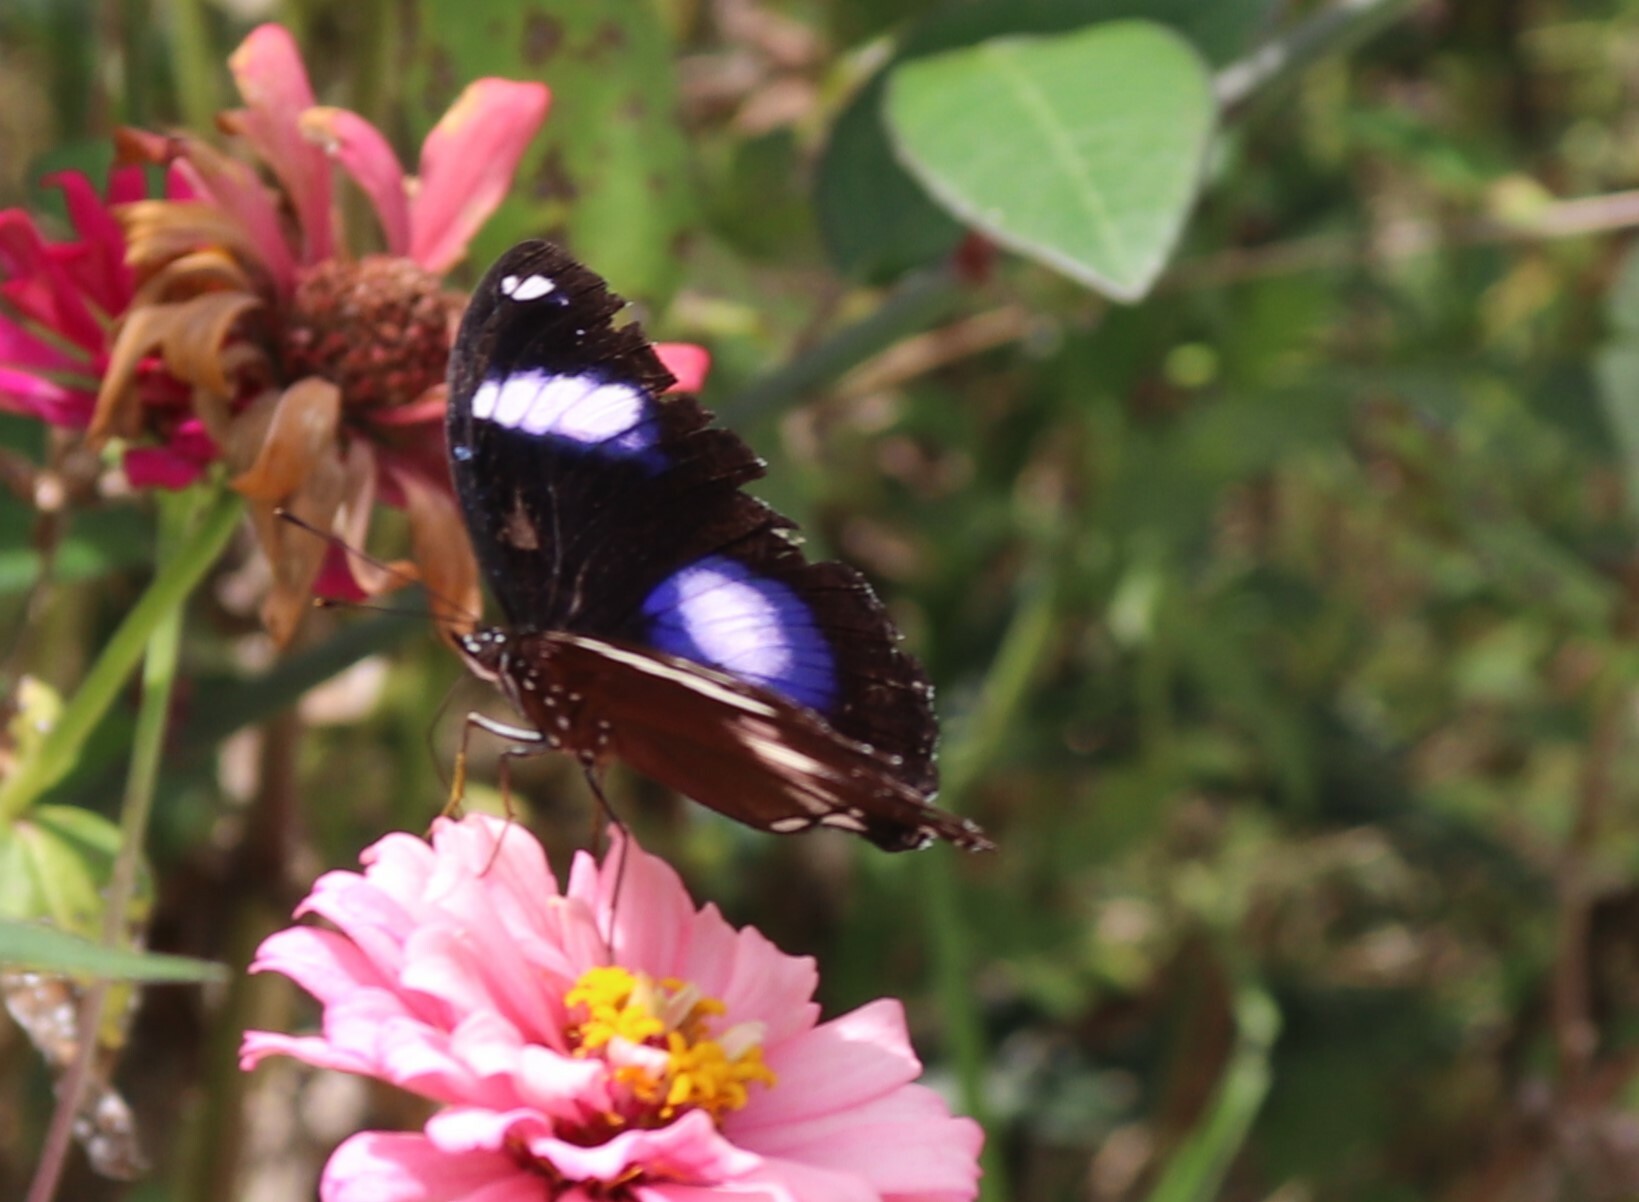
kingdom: Animalia
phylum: Arthropoda
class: Insecta
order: Lepidoptera
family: Nymphalidae
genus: Hypolimnas
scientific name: Hypolimnas bolina
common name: Great eggfly
